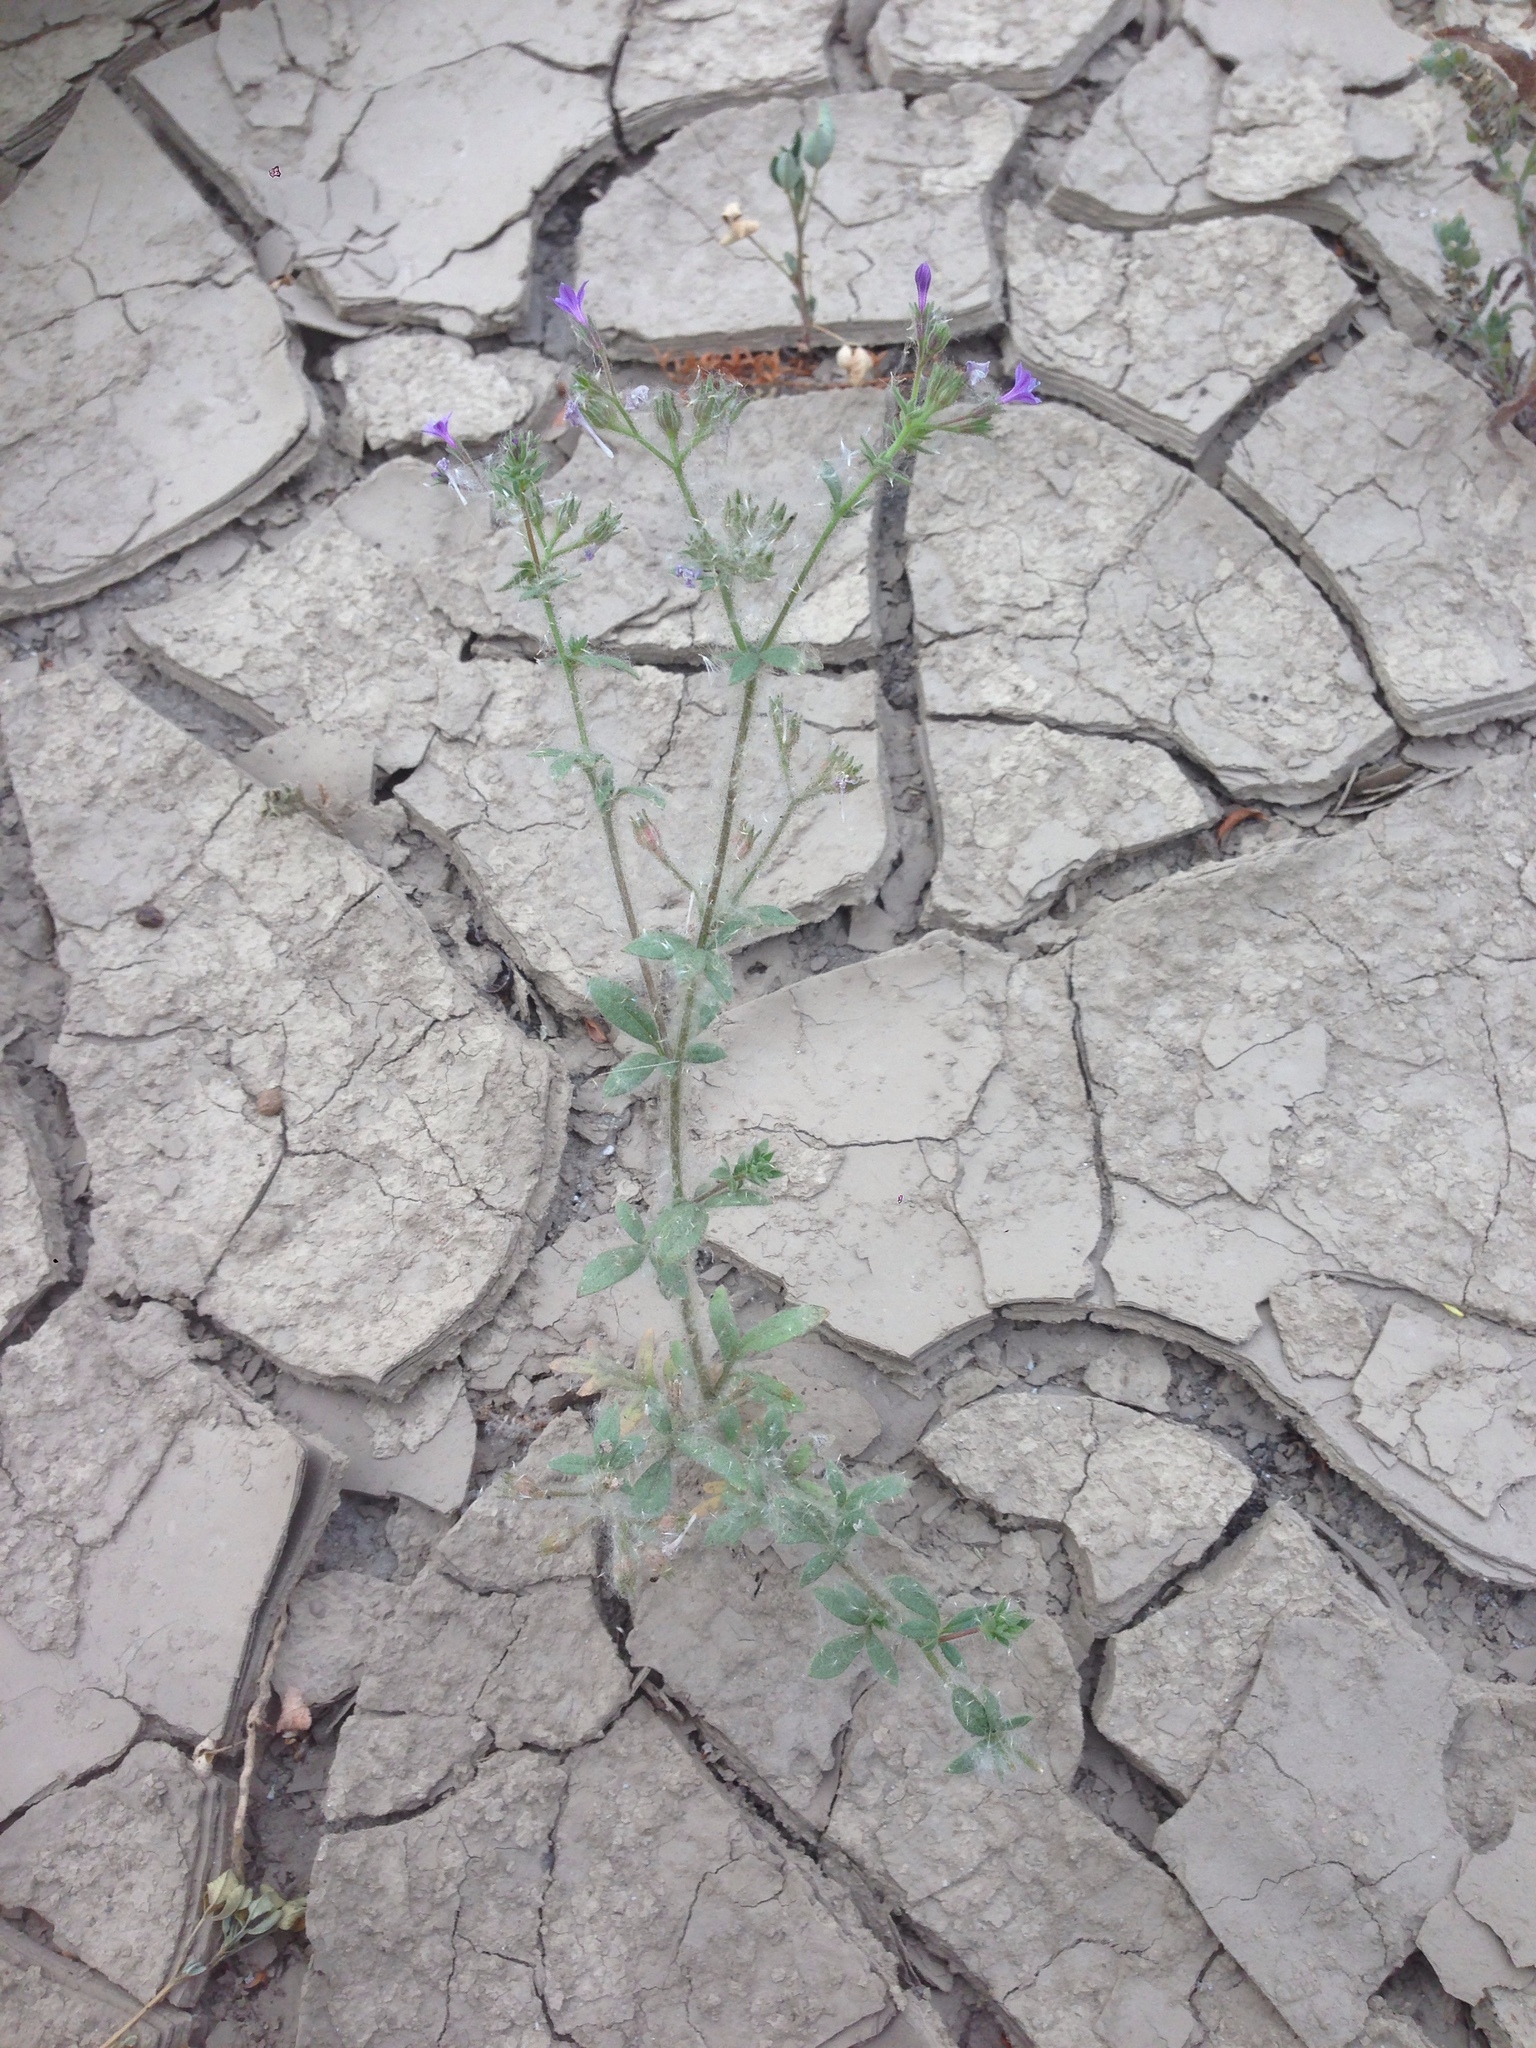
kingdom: Plantae
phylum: Tracheophyta
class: Magnoliopsida
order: Ericales
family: Polemoniaceae
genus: Allophyllum
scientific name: Allophyllum glutinosum
